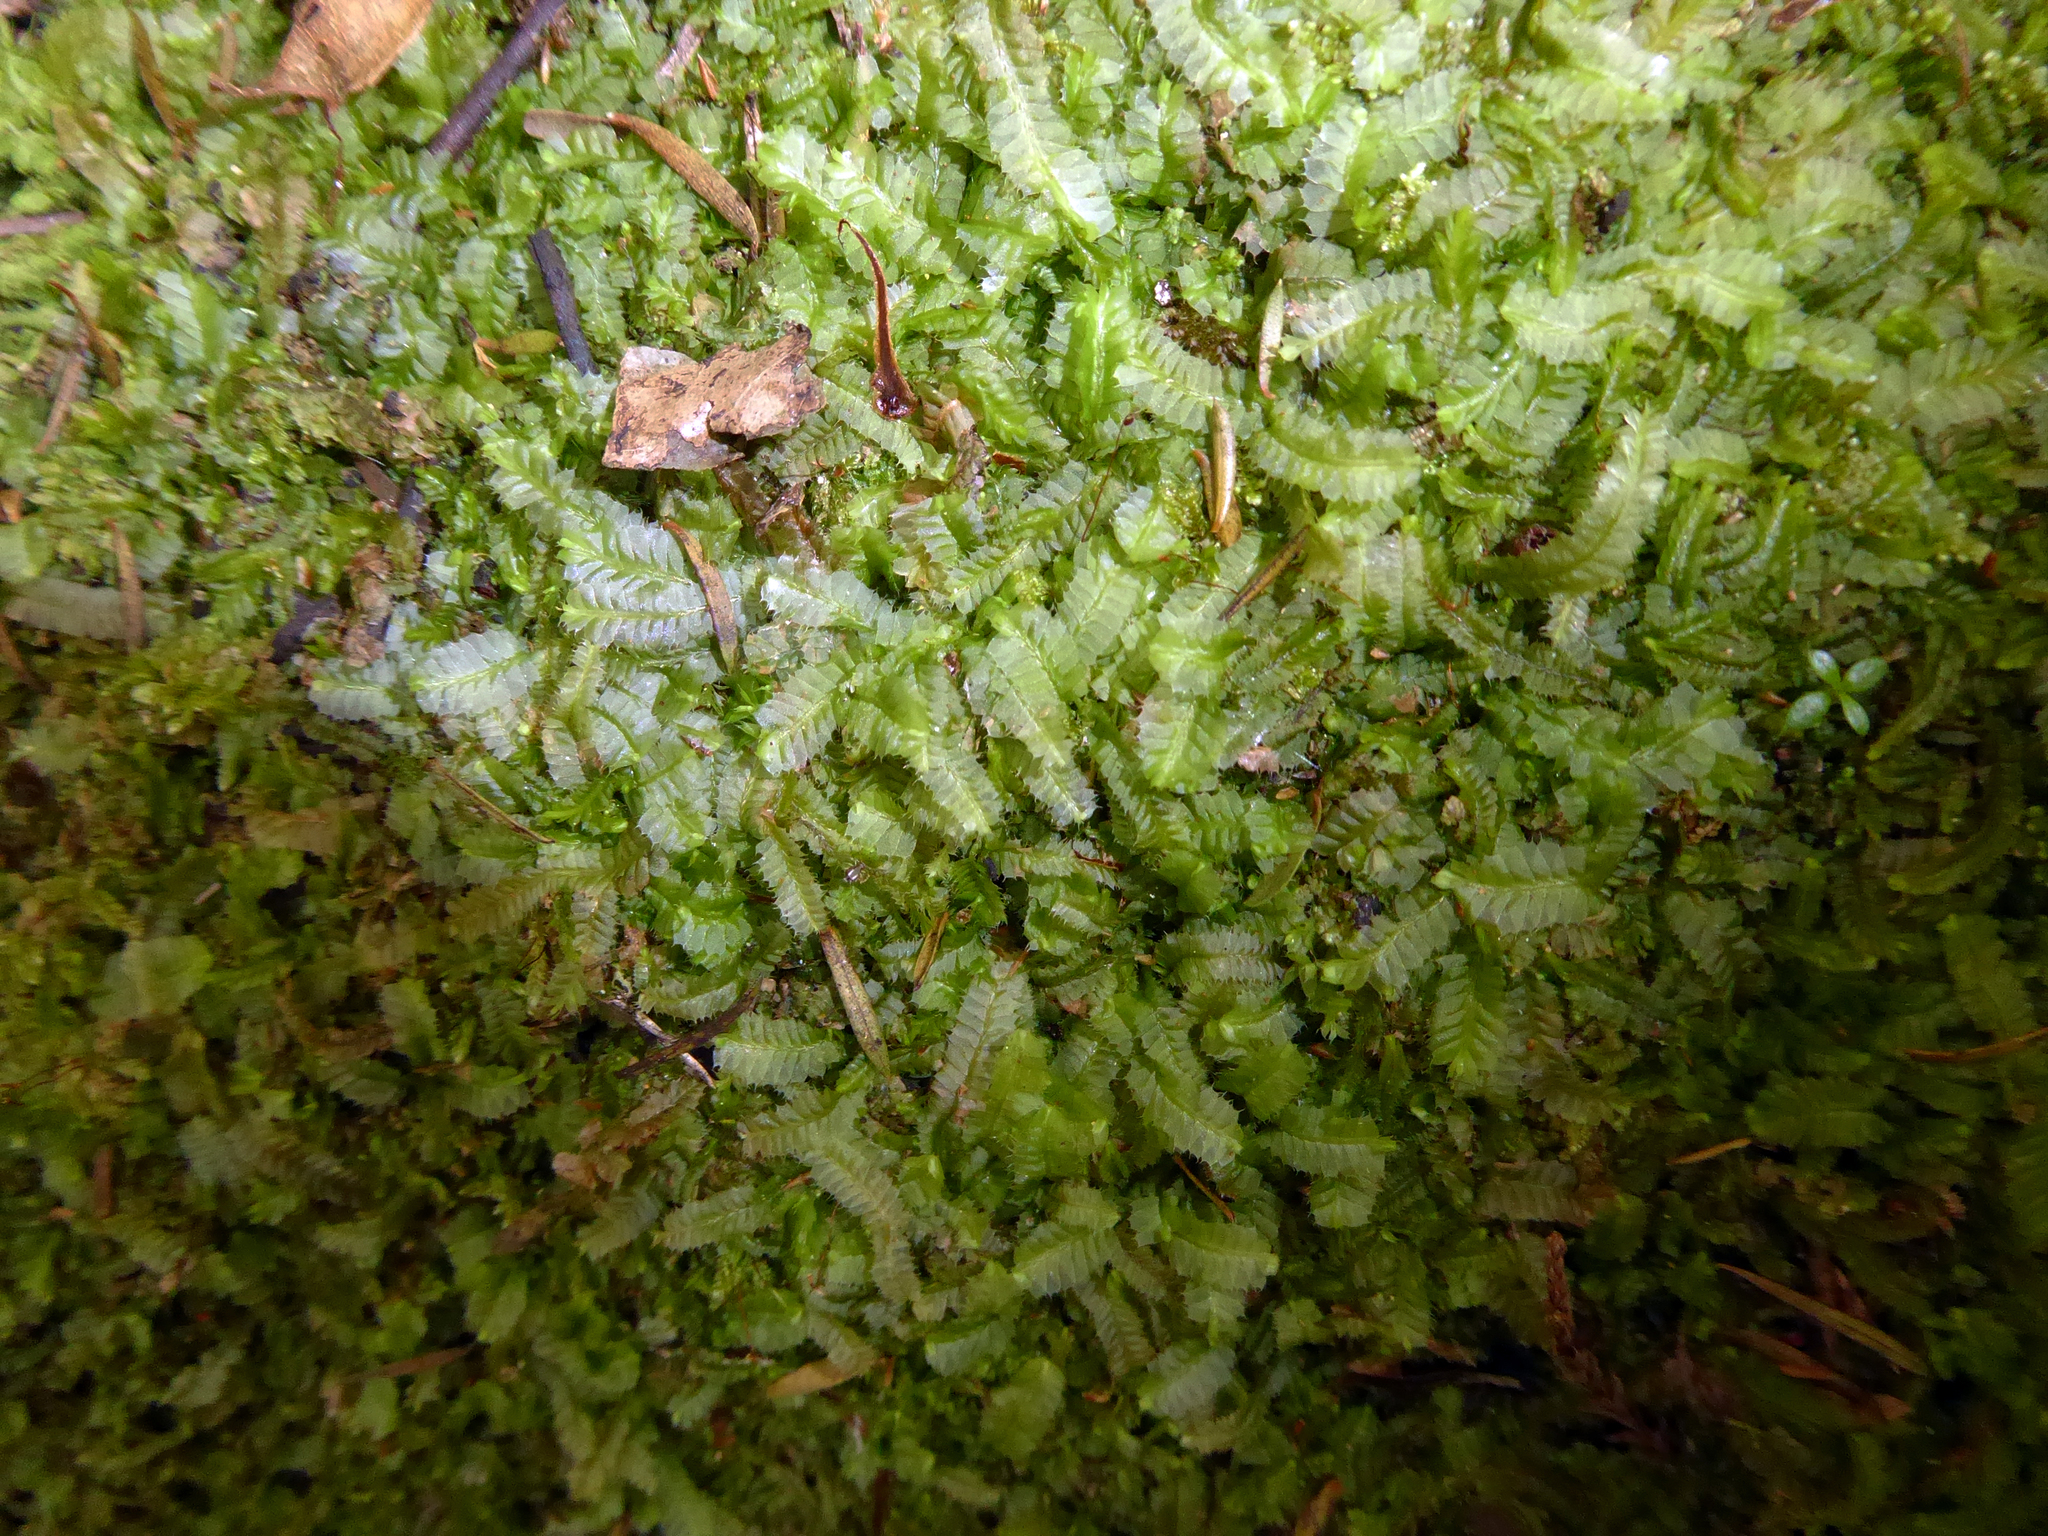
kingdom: Plantae
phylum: Marchantiophyta
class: Jungermanniopsida
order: Jungermanniales
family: Lophocoleaceae
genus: Heteroscyphus
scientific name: Heteroscyphus fissistipus
